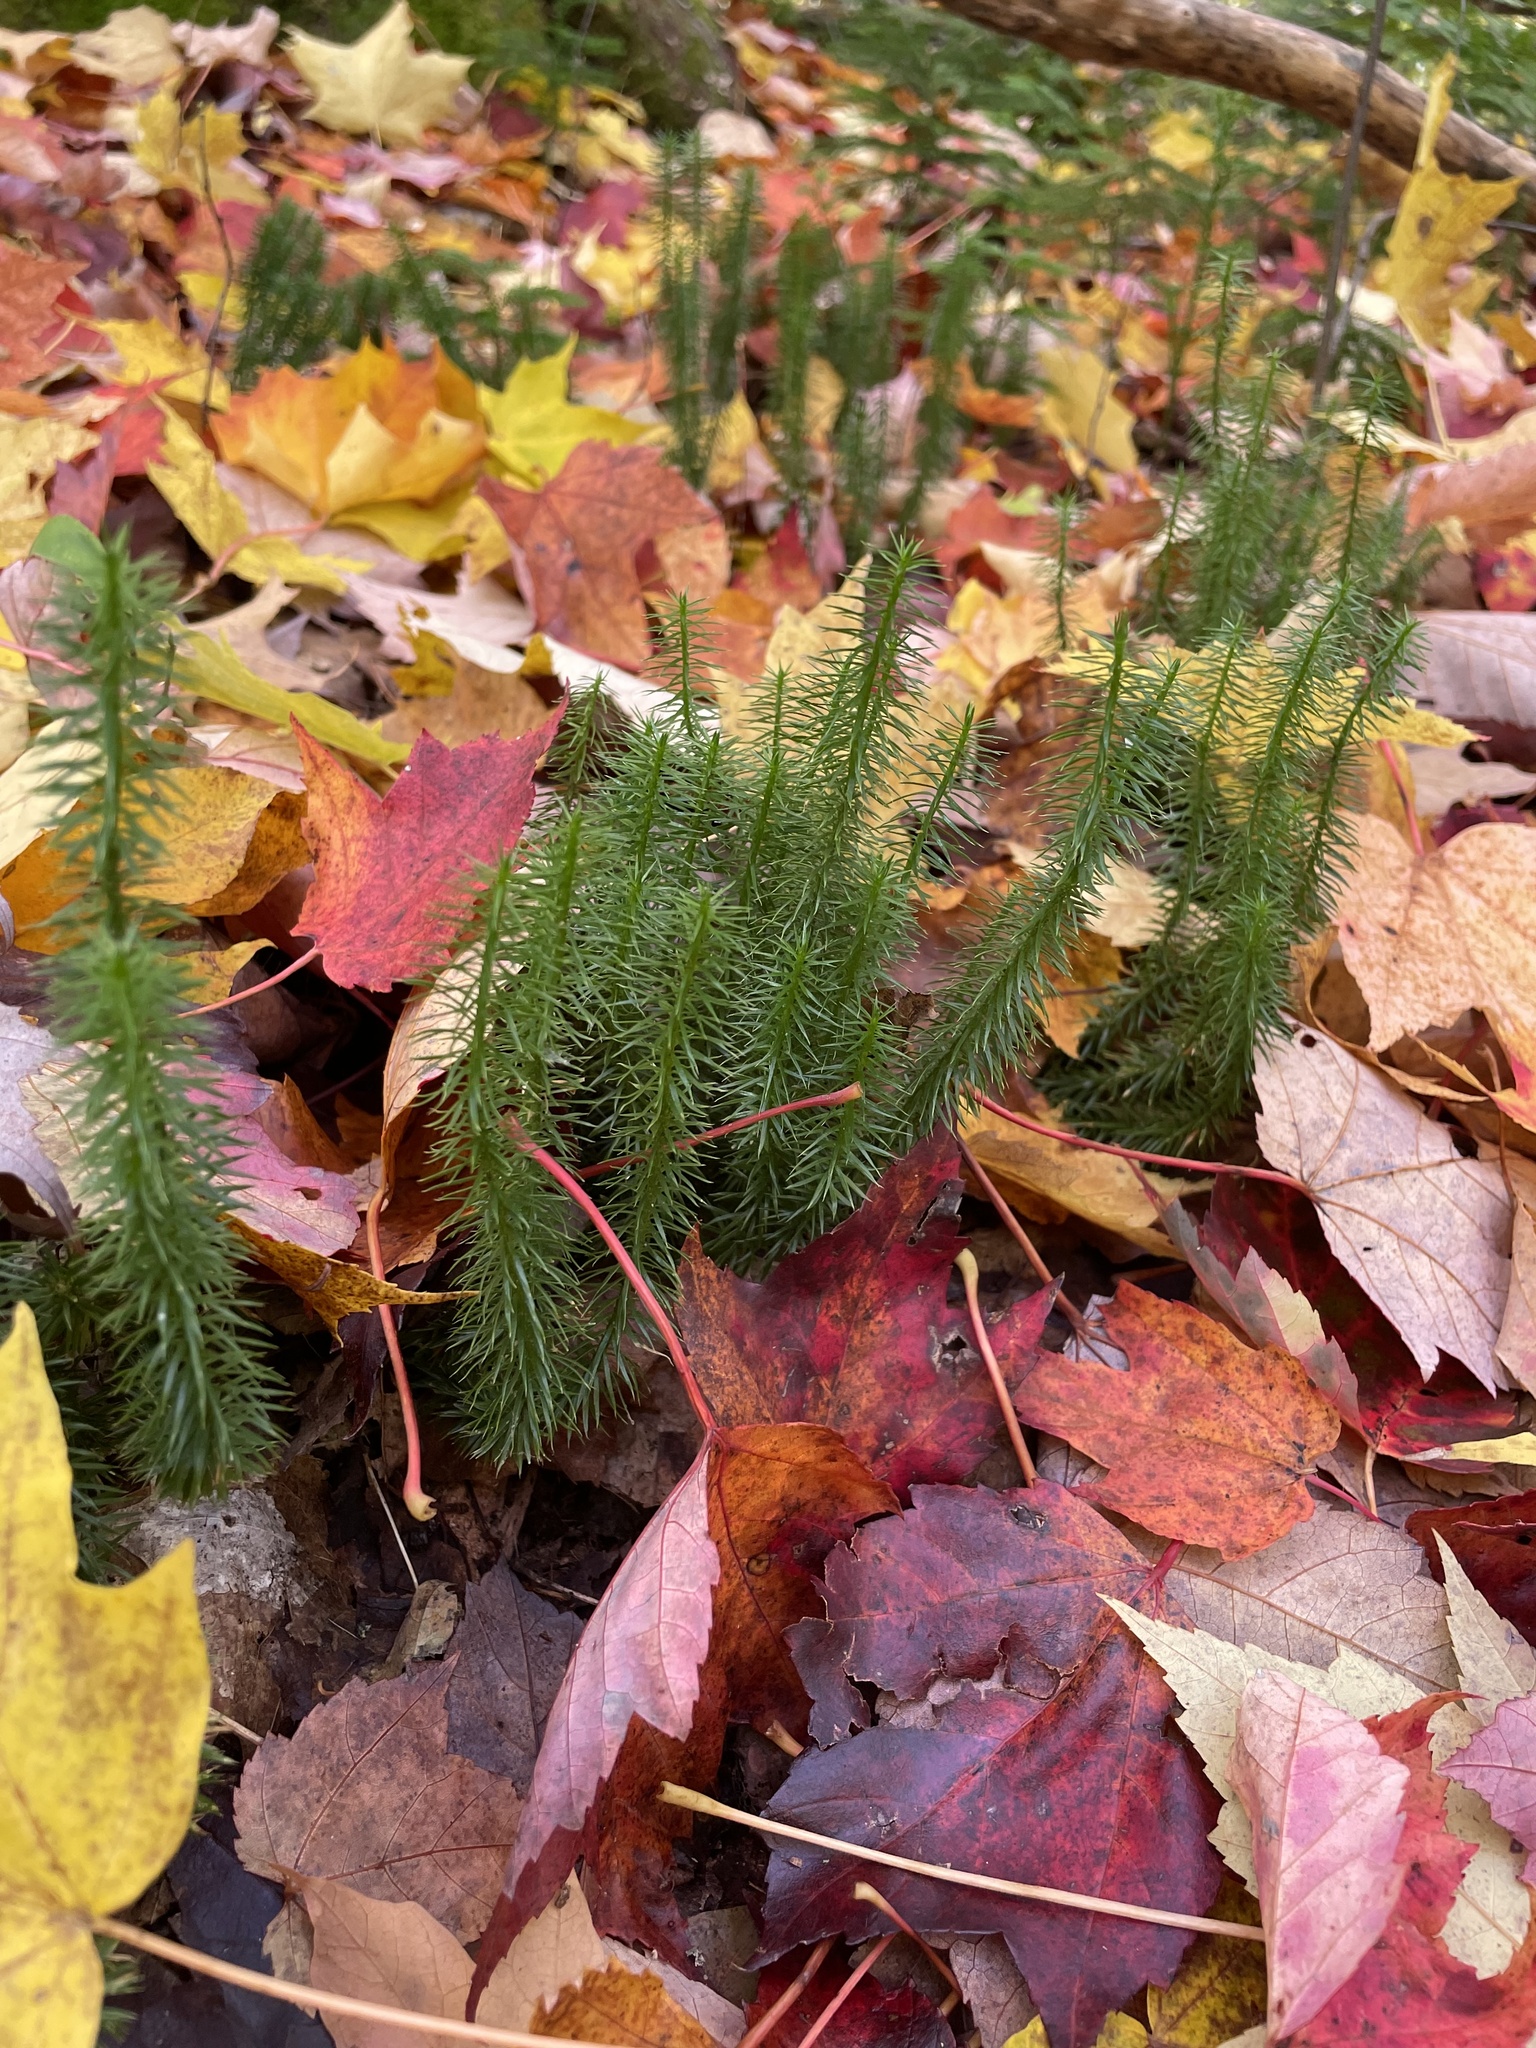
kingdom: Plantae
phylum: Tracheophyta
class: Lycopodiopsida
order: Lycopodiales
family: Lycopodiaceae
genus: Spinulum
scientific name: Spinulum annotinum
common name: Interrupted club-moss
